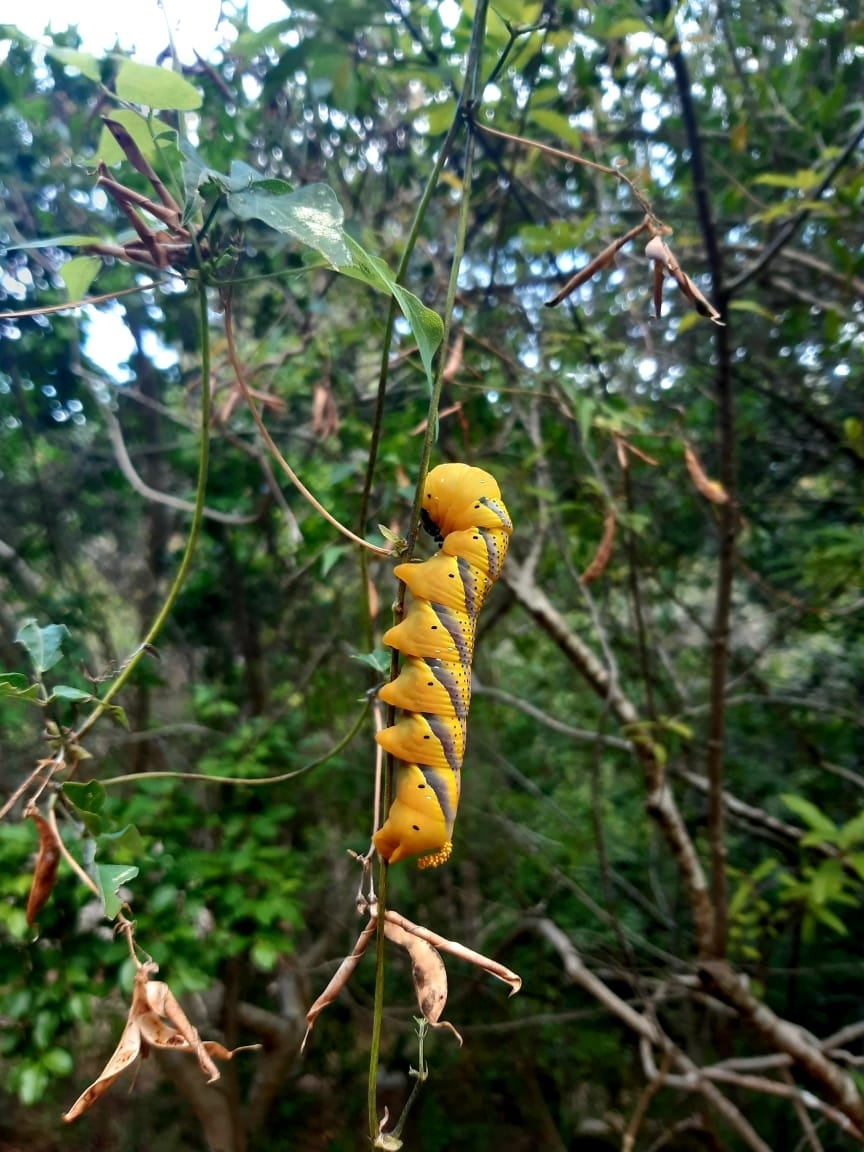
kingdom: Animalia
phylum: Arthropoda
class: Insecta
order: Lepidoptera
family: Sphingidae
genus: Acherontia
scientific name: Acherontia atropos
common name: Death's-head hawk moth
